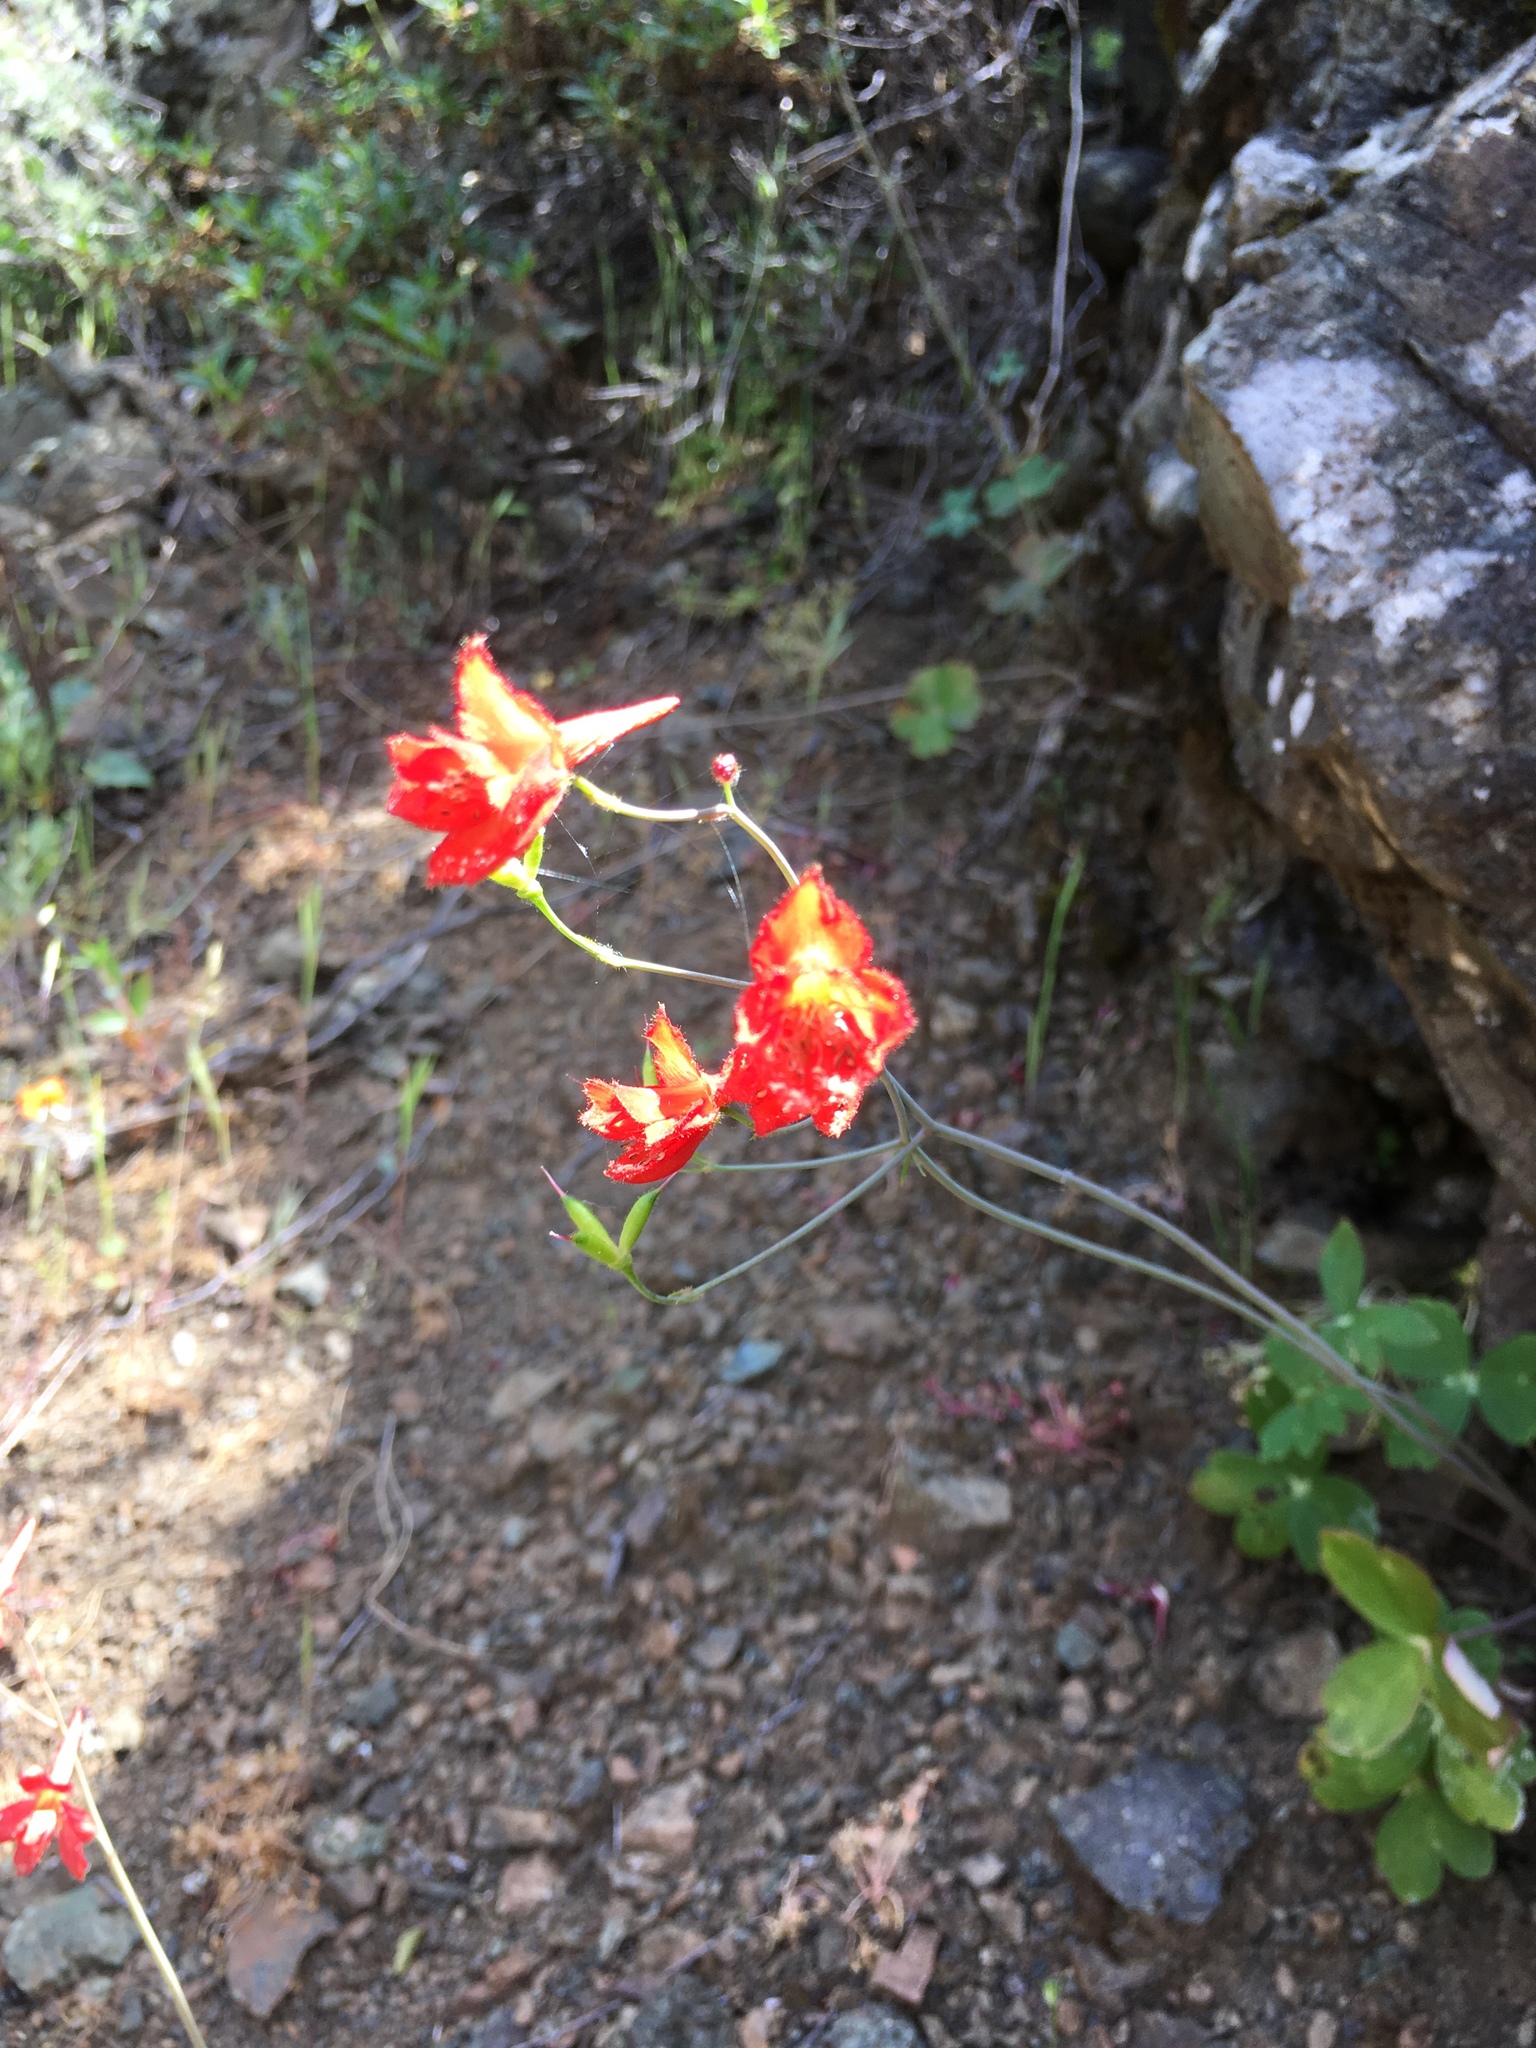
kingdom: Plantae
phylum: Tracheophyta
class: Magnoliopsida
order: Ranunculales
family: Ranunculaceae
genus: Delphinium
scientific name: Delphinium nudicaule
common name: Red larkspur
